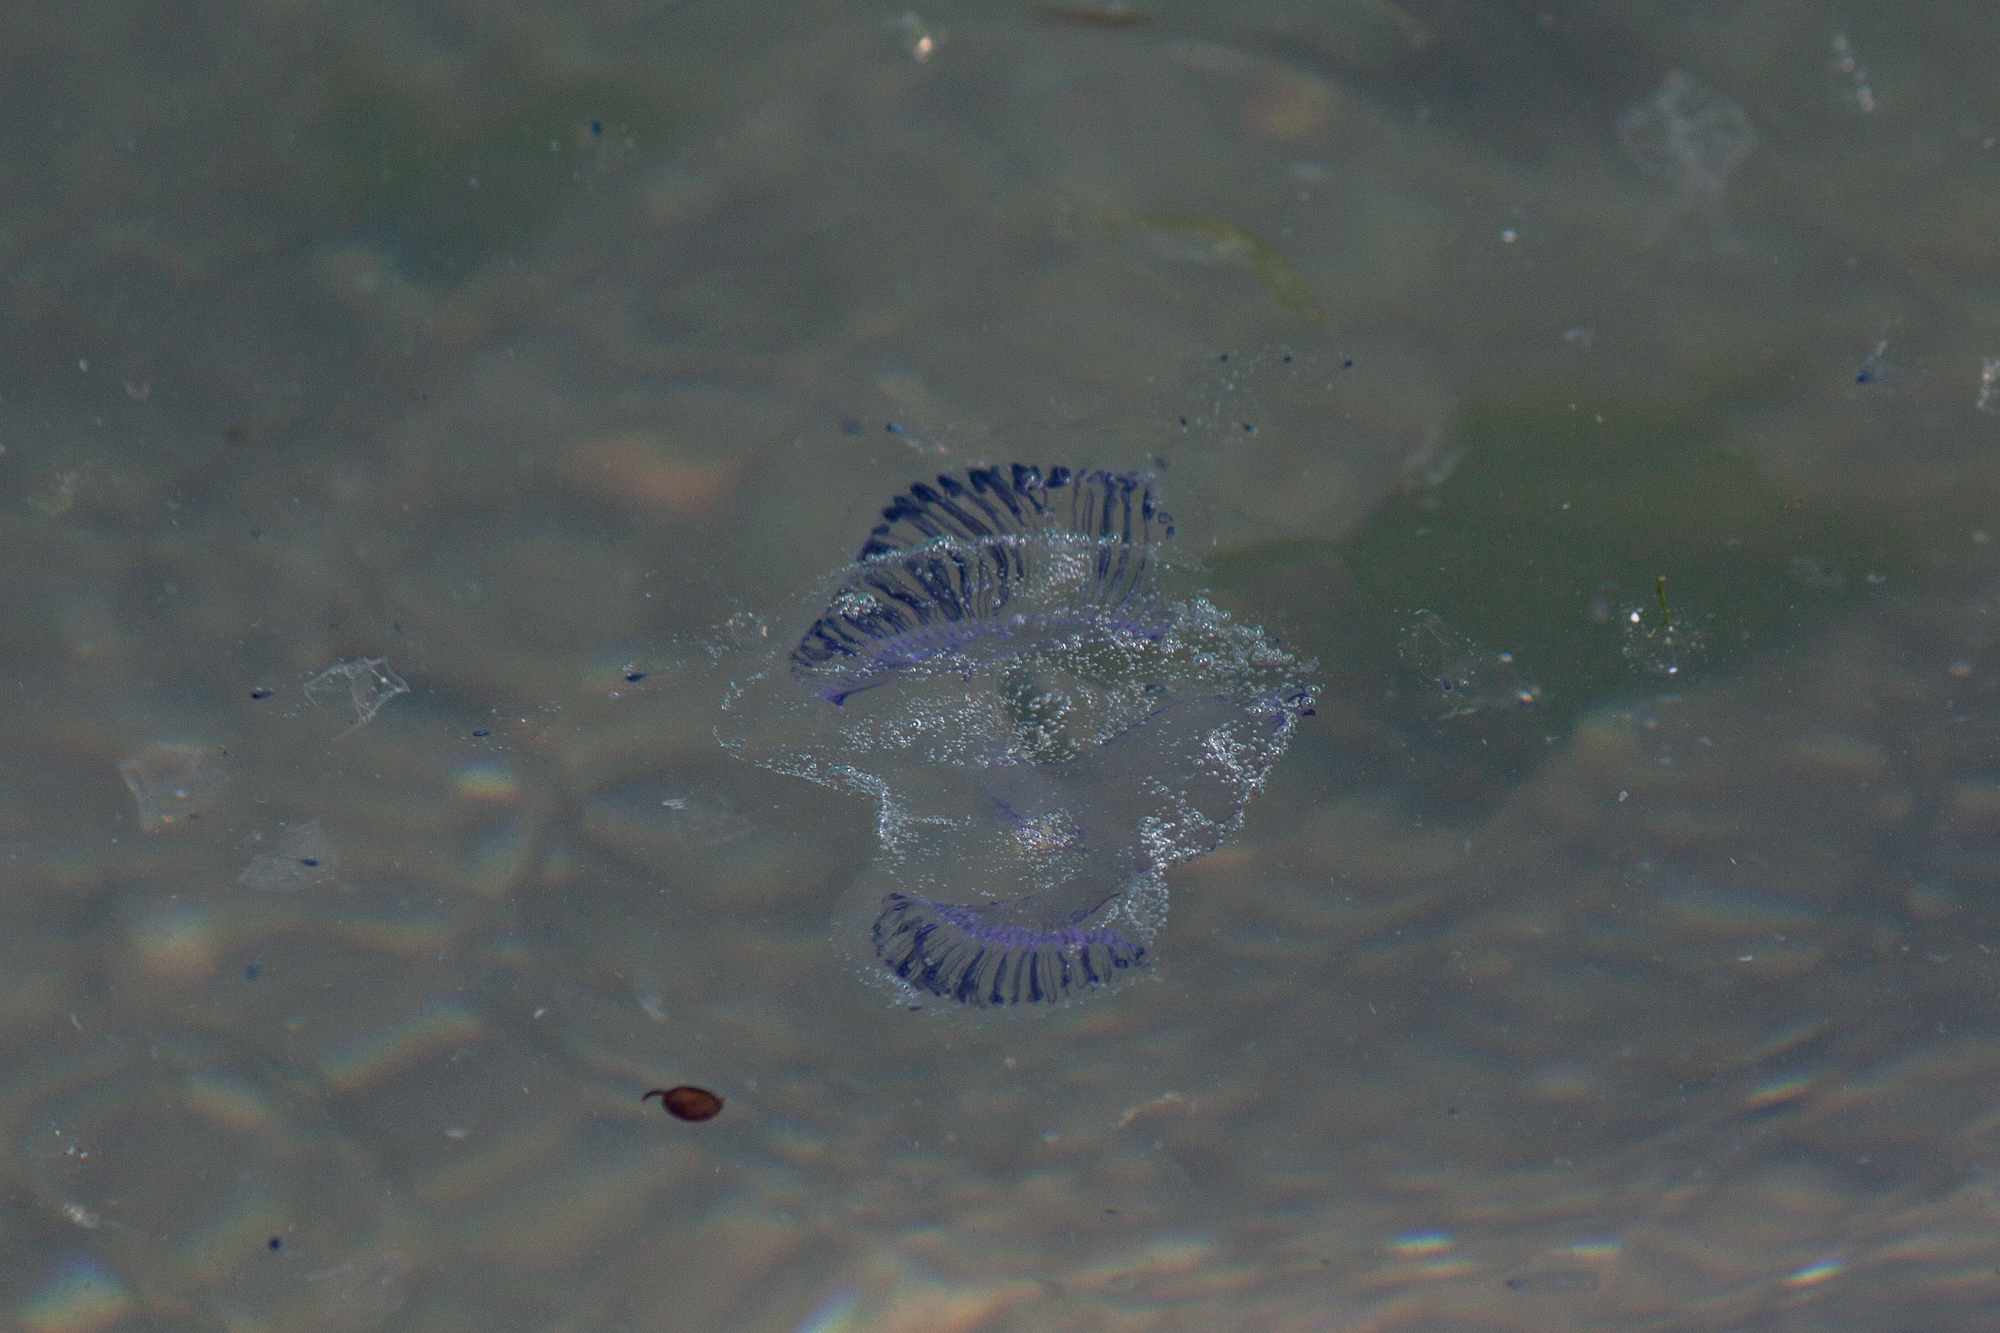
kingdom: Animalia
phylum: Cnidaria
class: Hydrozoa
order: Leptothecata
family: Aequoreidae
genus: Aequorea
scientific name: Aequorea forskalea
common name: Many-ribbed jellyfish
